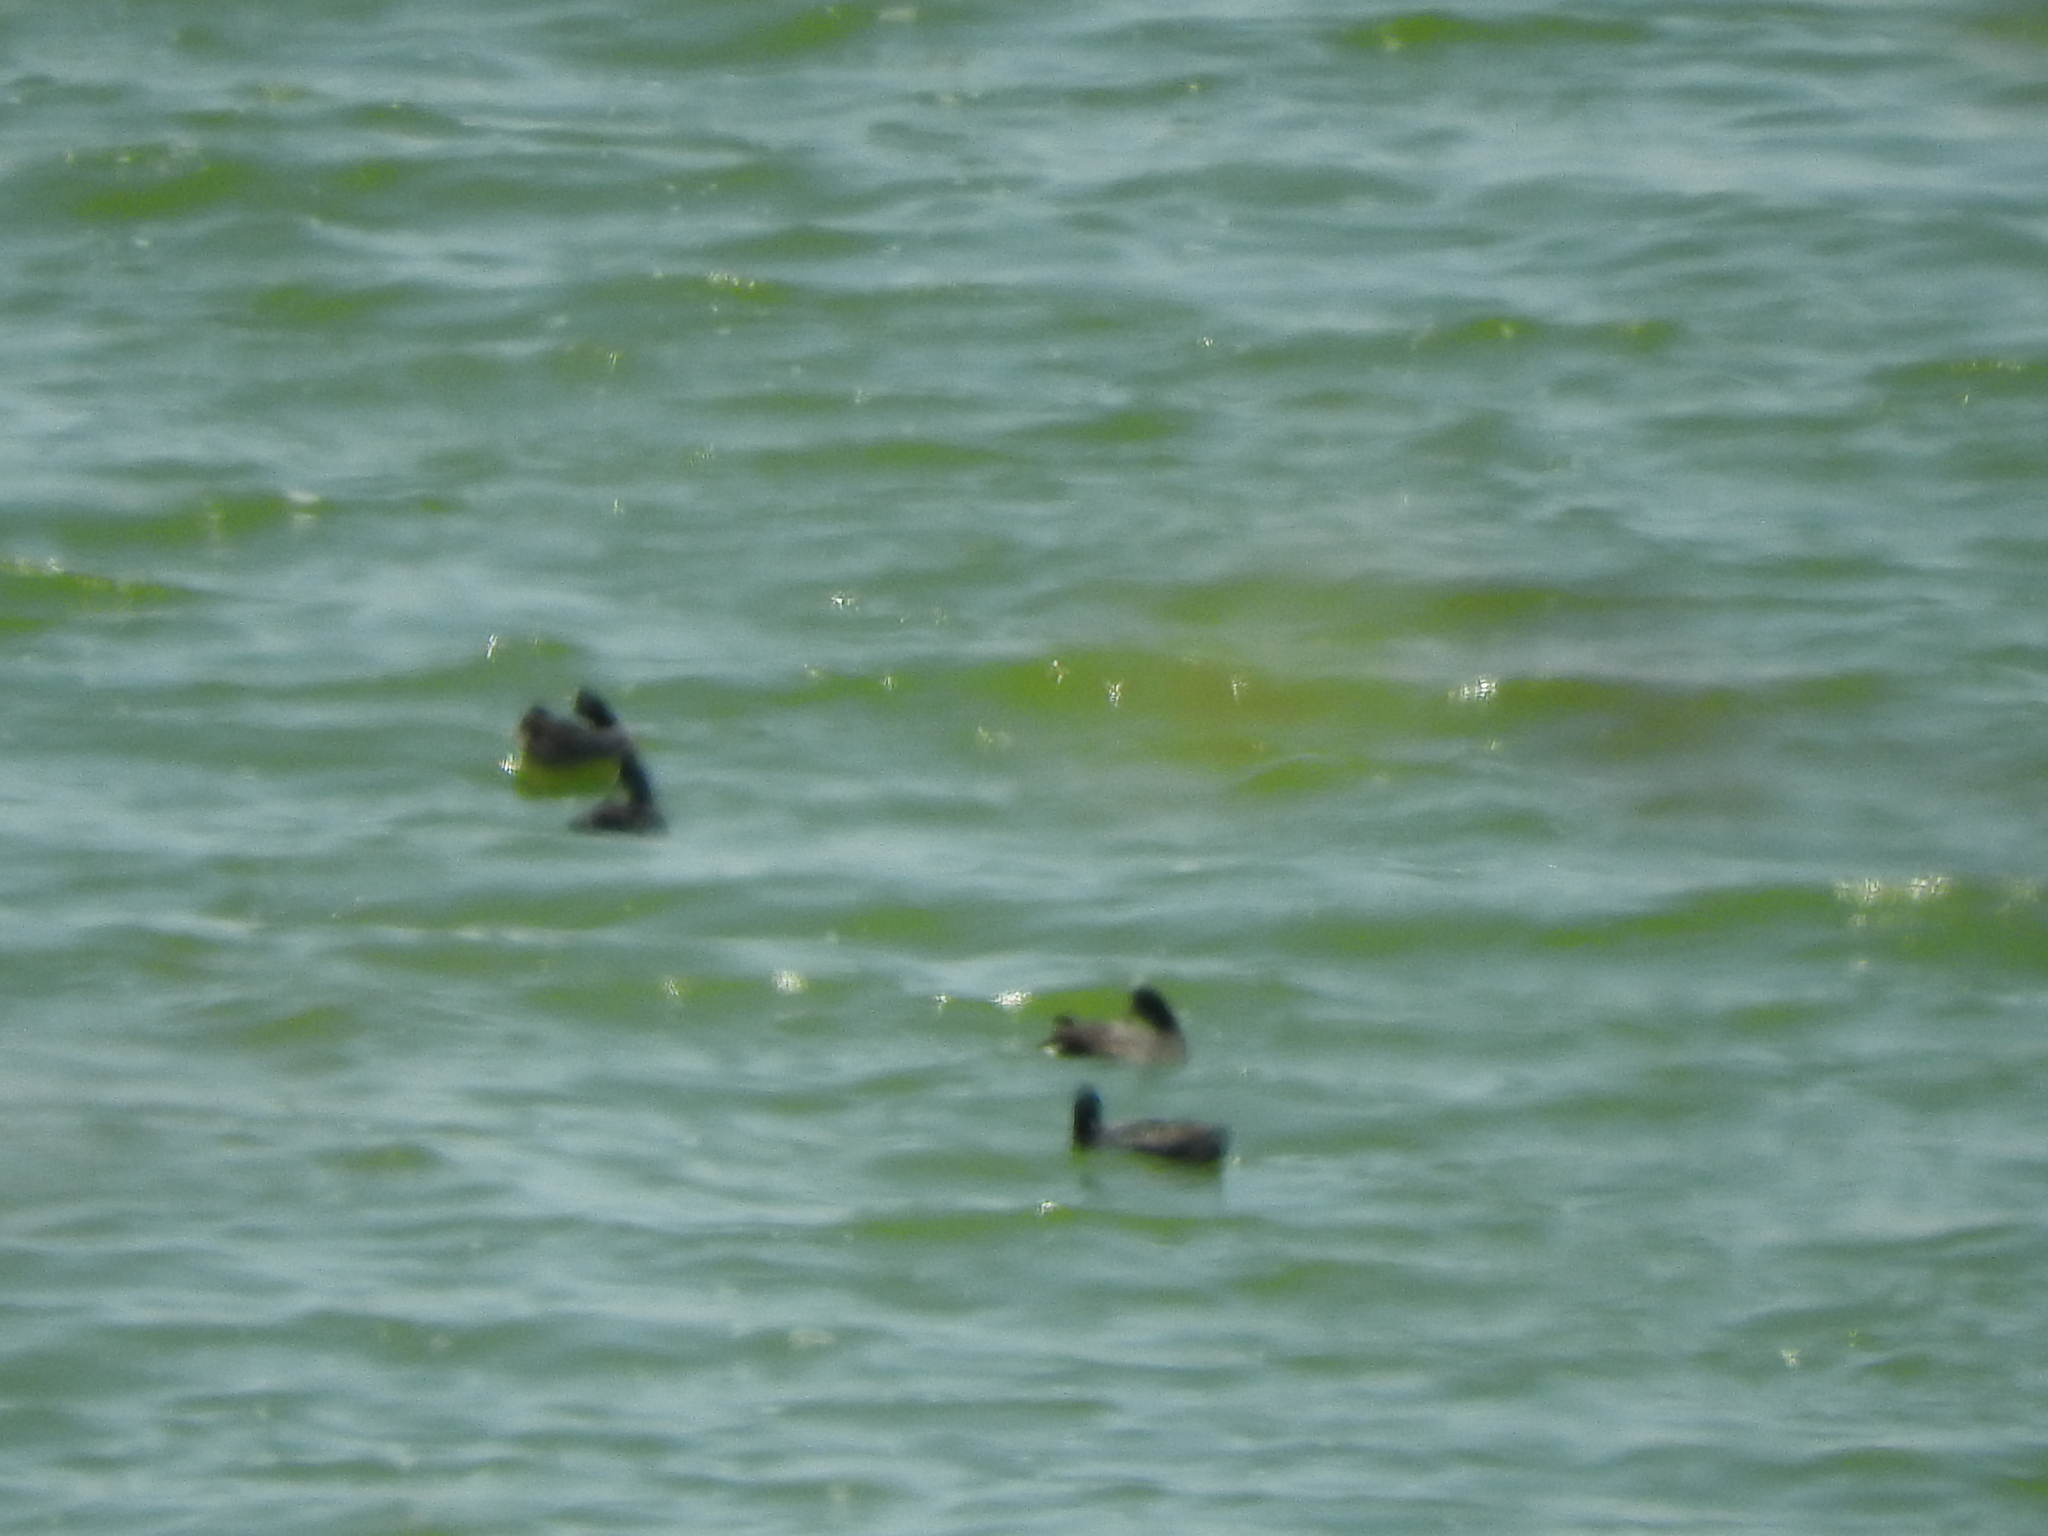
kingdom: Animalia
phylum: Chordata
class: Aves
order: Gruiformes
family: Rallidae
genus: Fulica
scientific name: Fulica americana
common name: American coot
